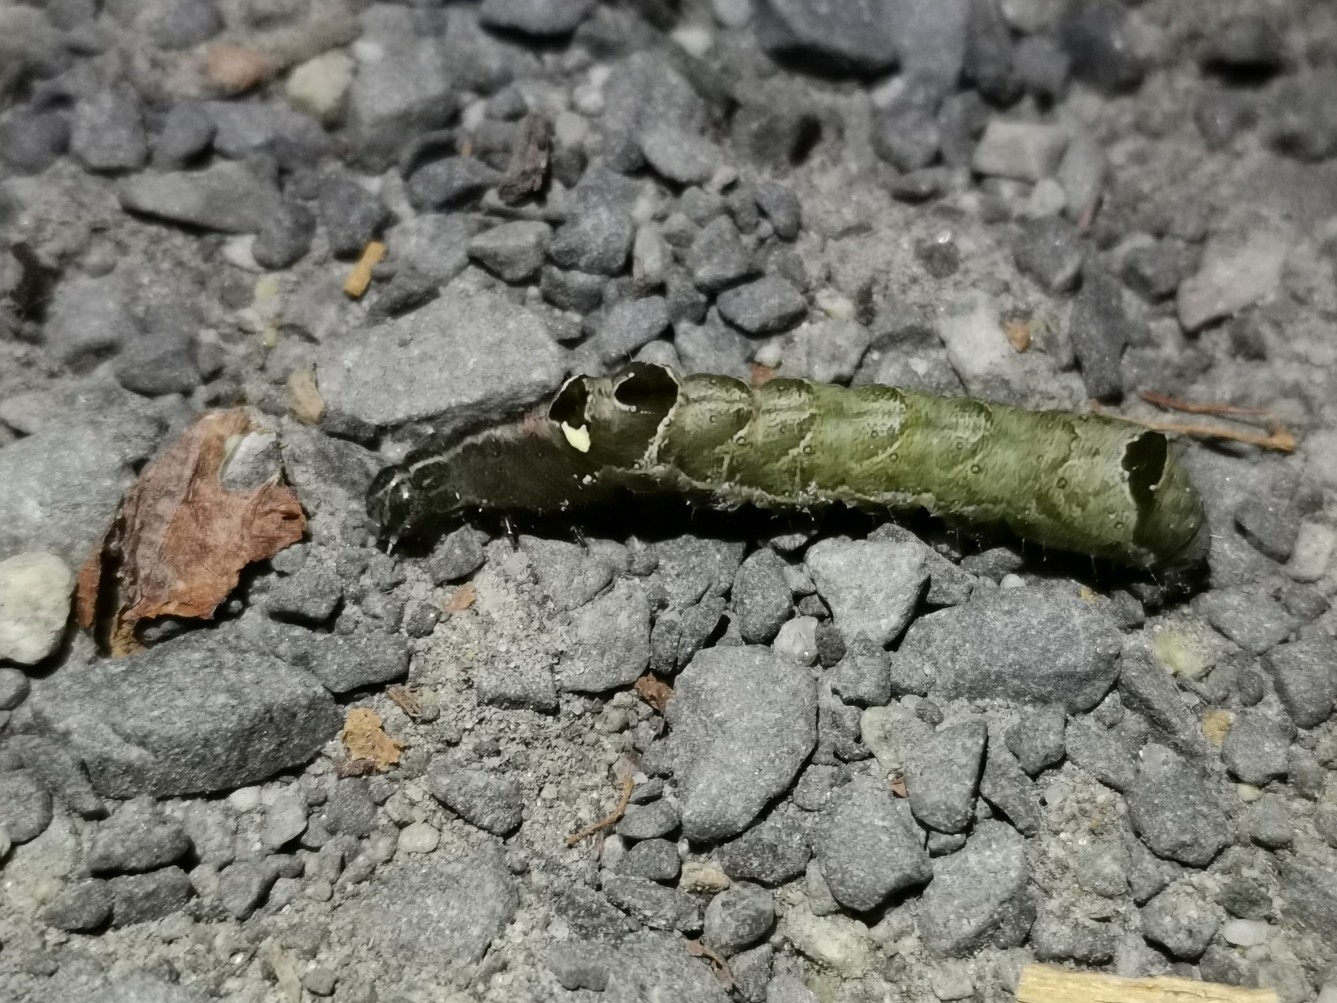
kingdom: Animalia
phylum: Arthropoda
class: Insecta
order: Lepidoptera
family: Noctuidae
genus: Abrostola
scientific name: Abrostola triplasia
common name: Dark spectacle
